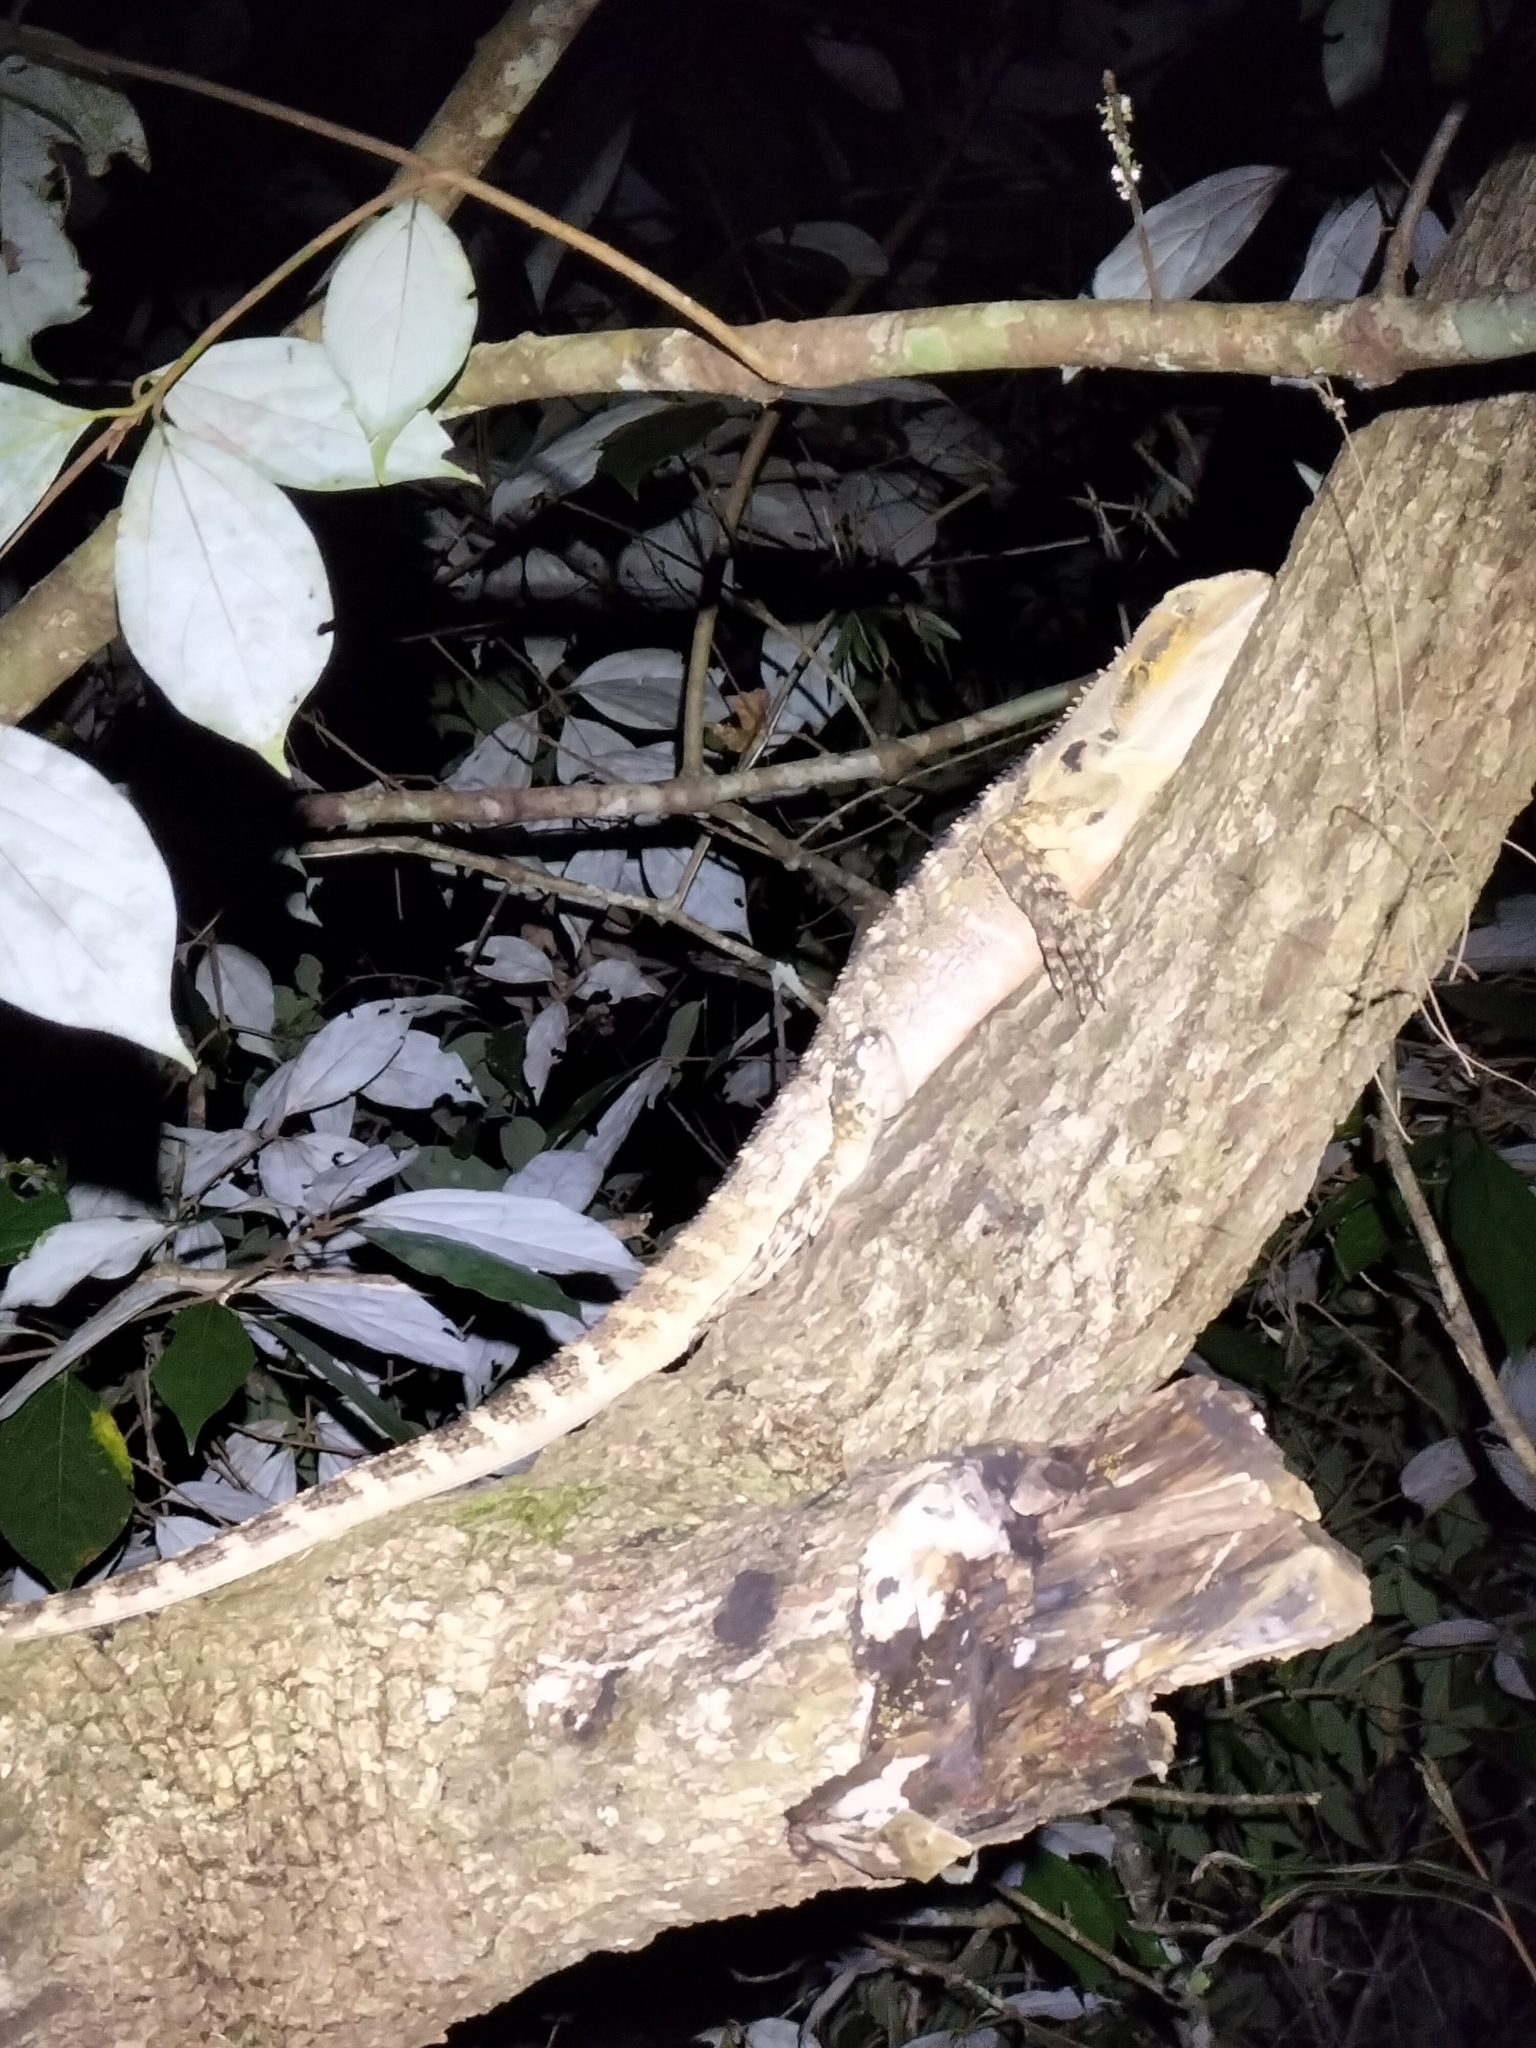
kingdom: Animalia
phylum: Chordata
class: Squamata
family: Agamidae
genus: Intellagama
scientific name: Intellagama lesueurii
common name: Eastern water dragon
